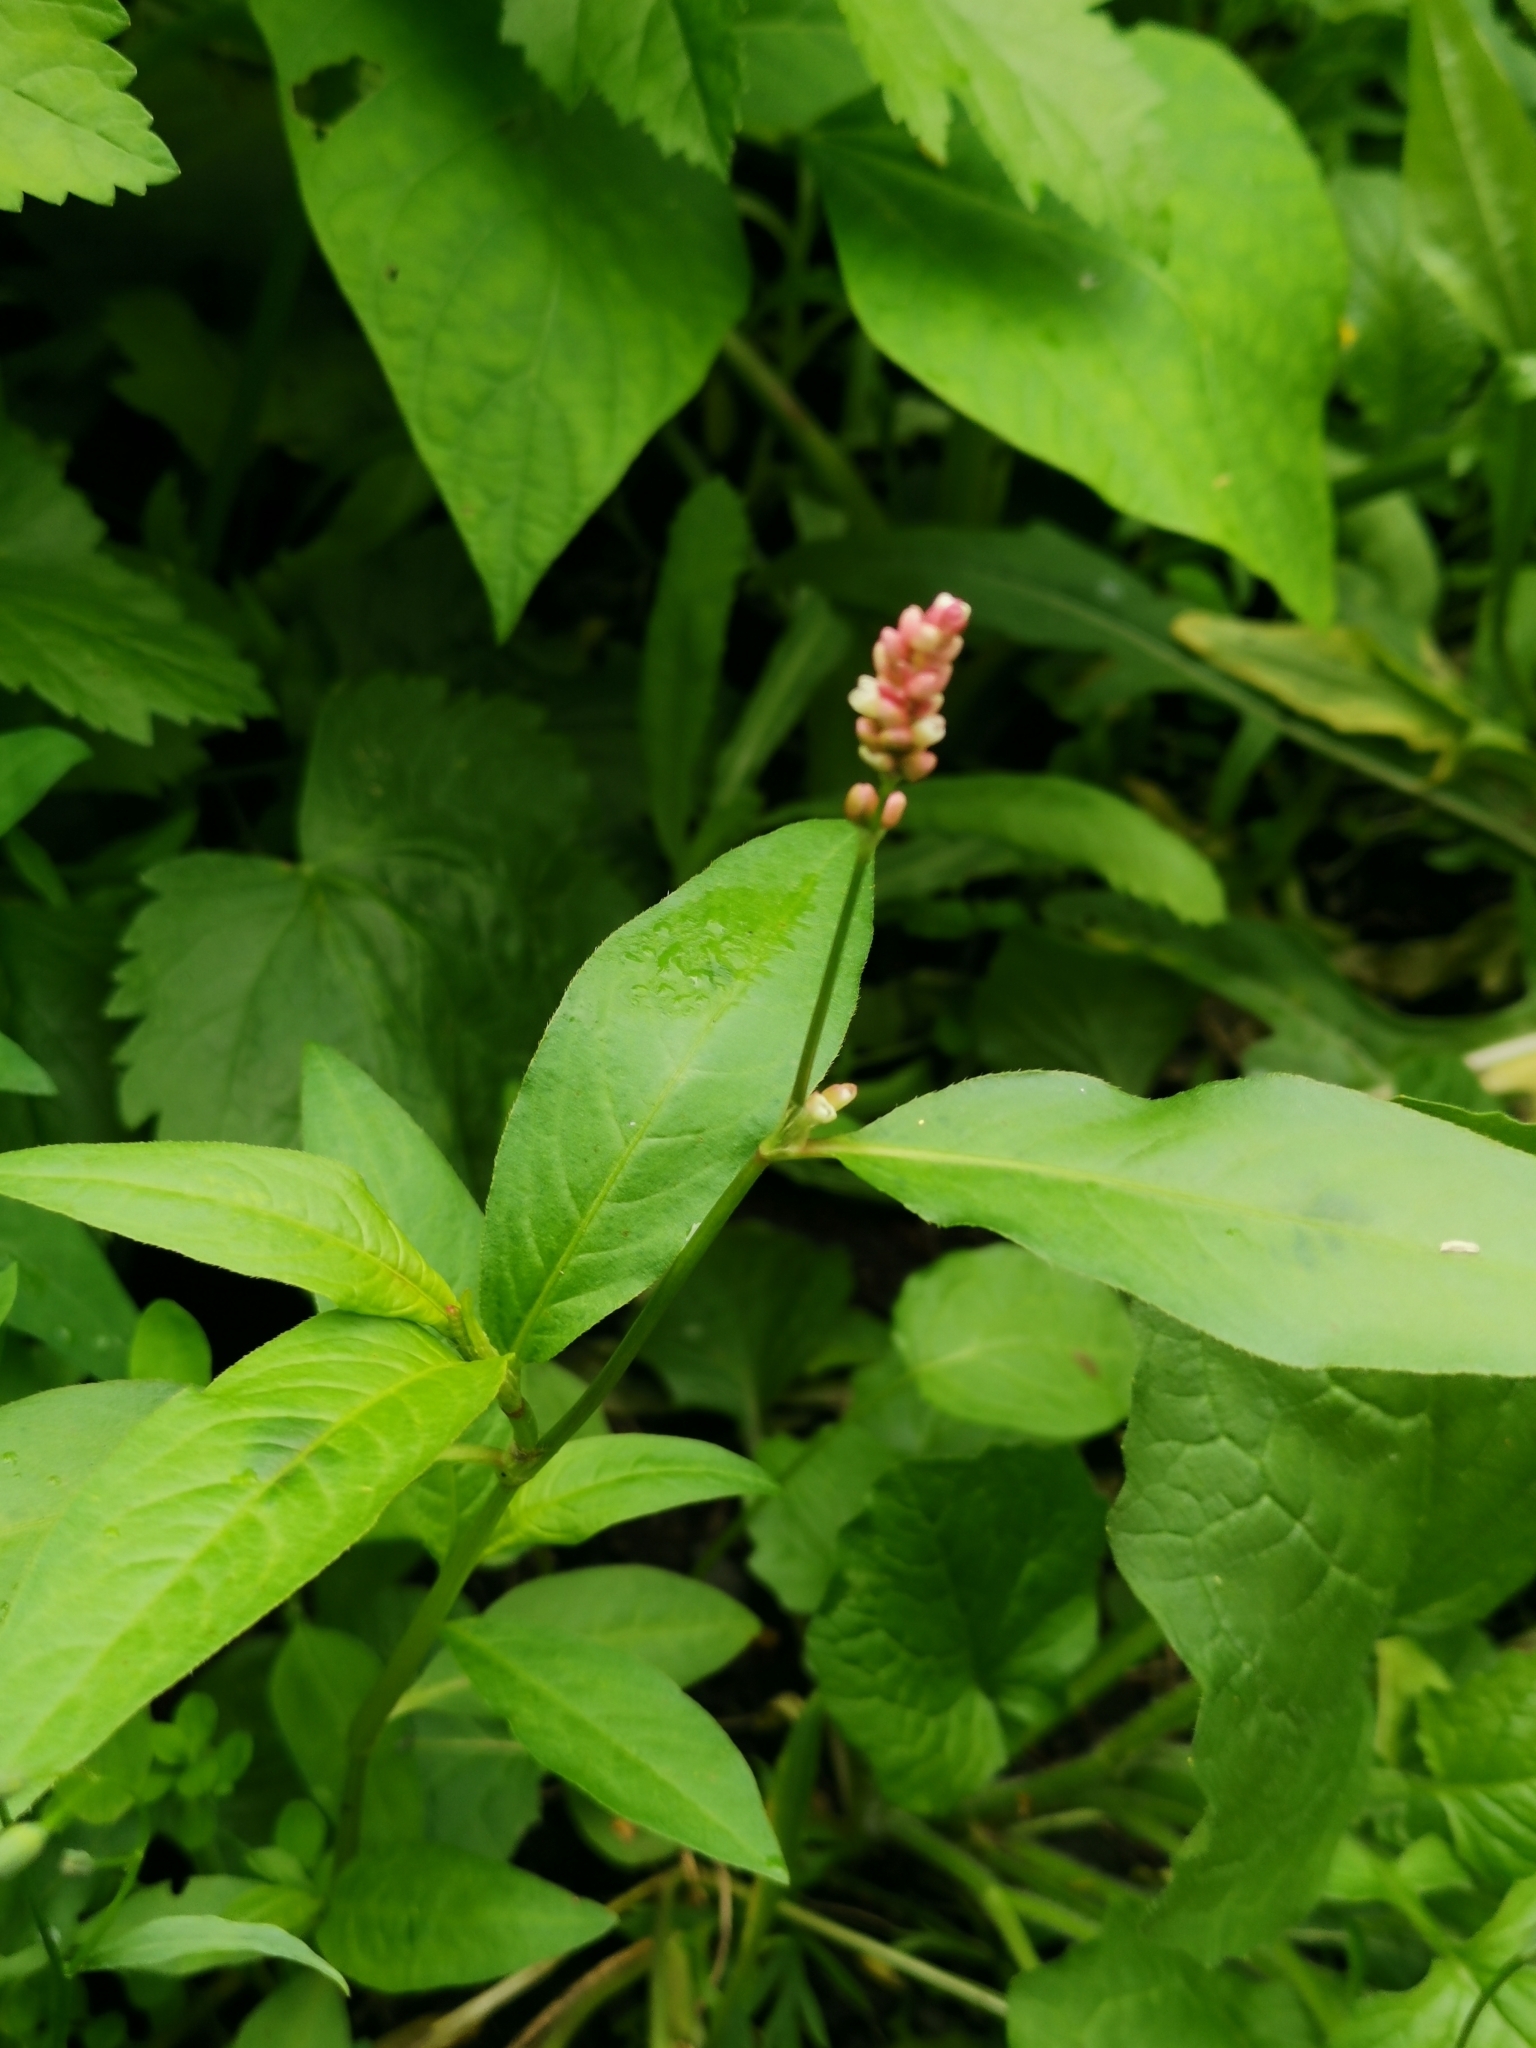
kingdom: Plantae
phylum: Tracheophyta
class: Magnoliopsida
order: Caryophyllales
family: Polygonaceae
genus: Persicaria
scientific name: Persicaria maculosa
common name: Redshank
